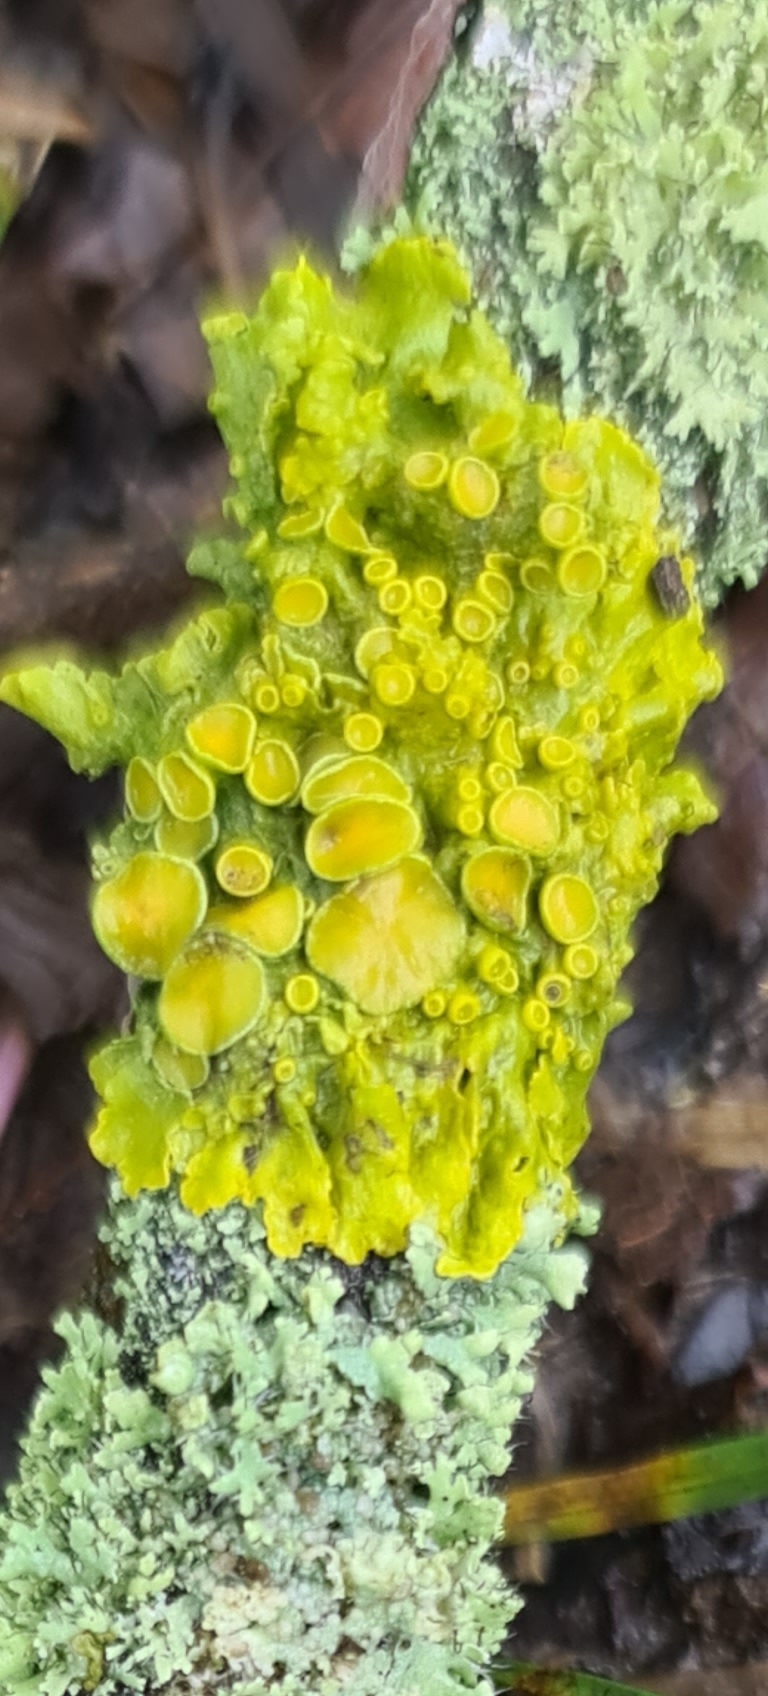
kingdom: Fungi
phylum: Ascomycota
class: Lecanoromycetes
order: Teloschistales
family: Teloschistaceae
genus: Xanthoria
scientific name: Xanthoria parietina
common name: Common orange lichen
